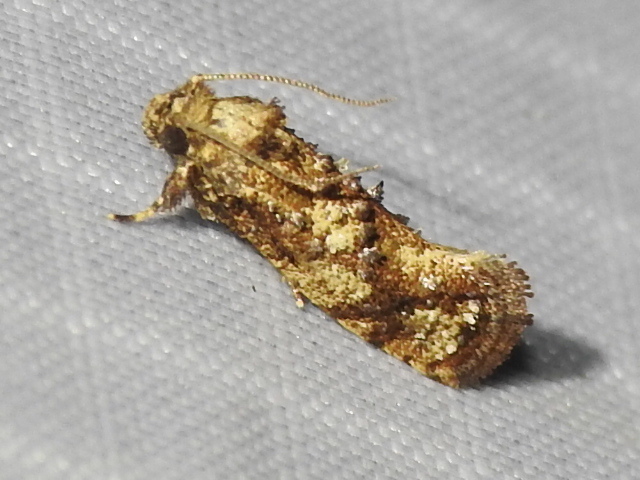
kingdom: Animalia
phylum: Arthropoda
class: Insecta
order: Lepidoptera
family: Tineidae
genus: Acrolophus
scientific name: Acrolophus cressoni
